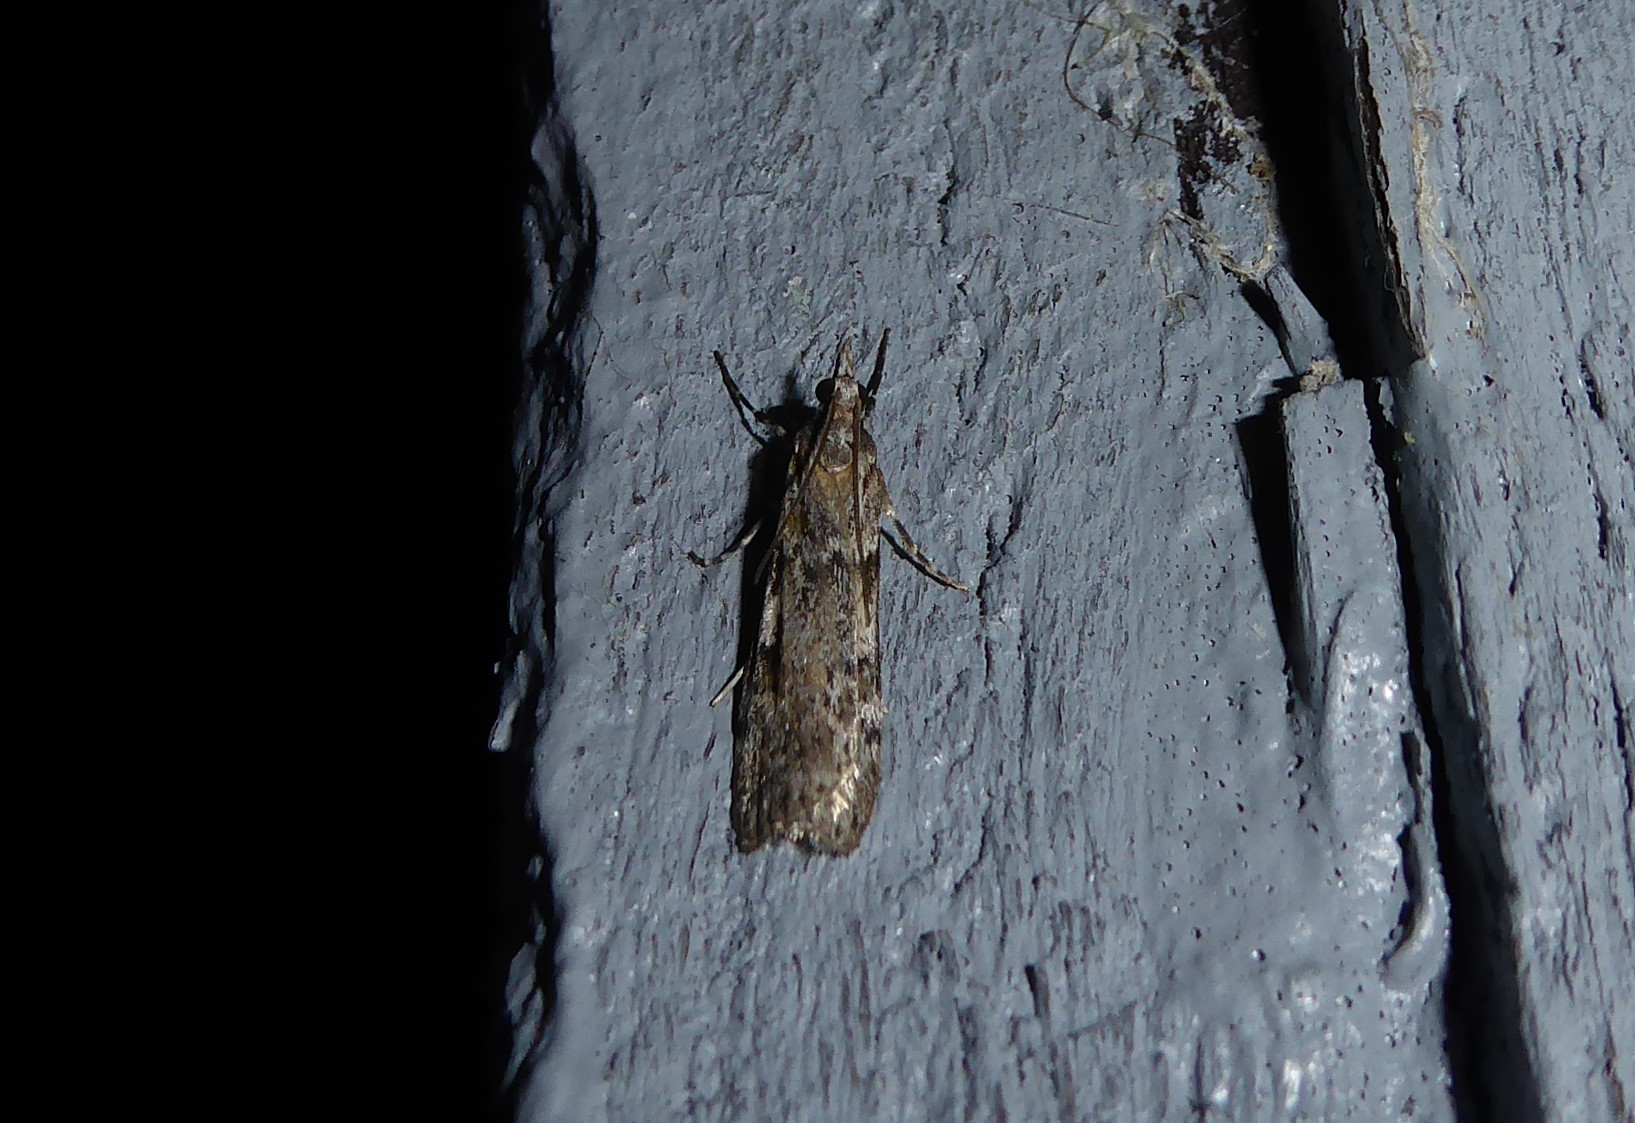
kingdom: Animalia
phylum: Arthropoda
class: Insecta
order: Lepidoptera
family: Crambidae
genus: Scoparia
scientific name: Scoparia halopis
